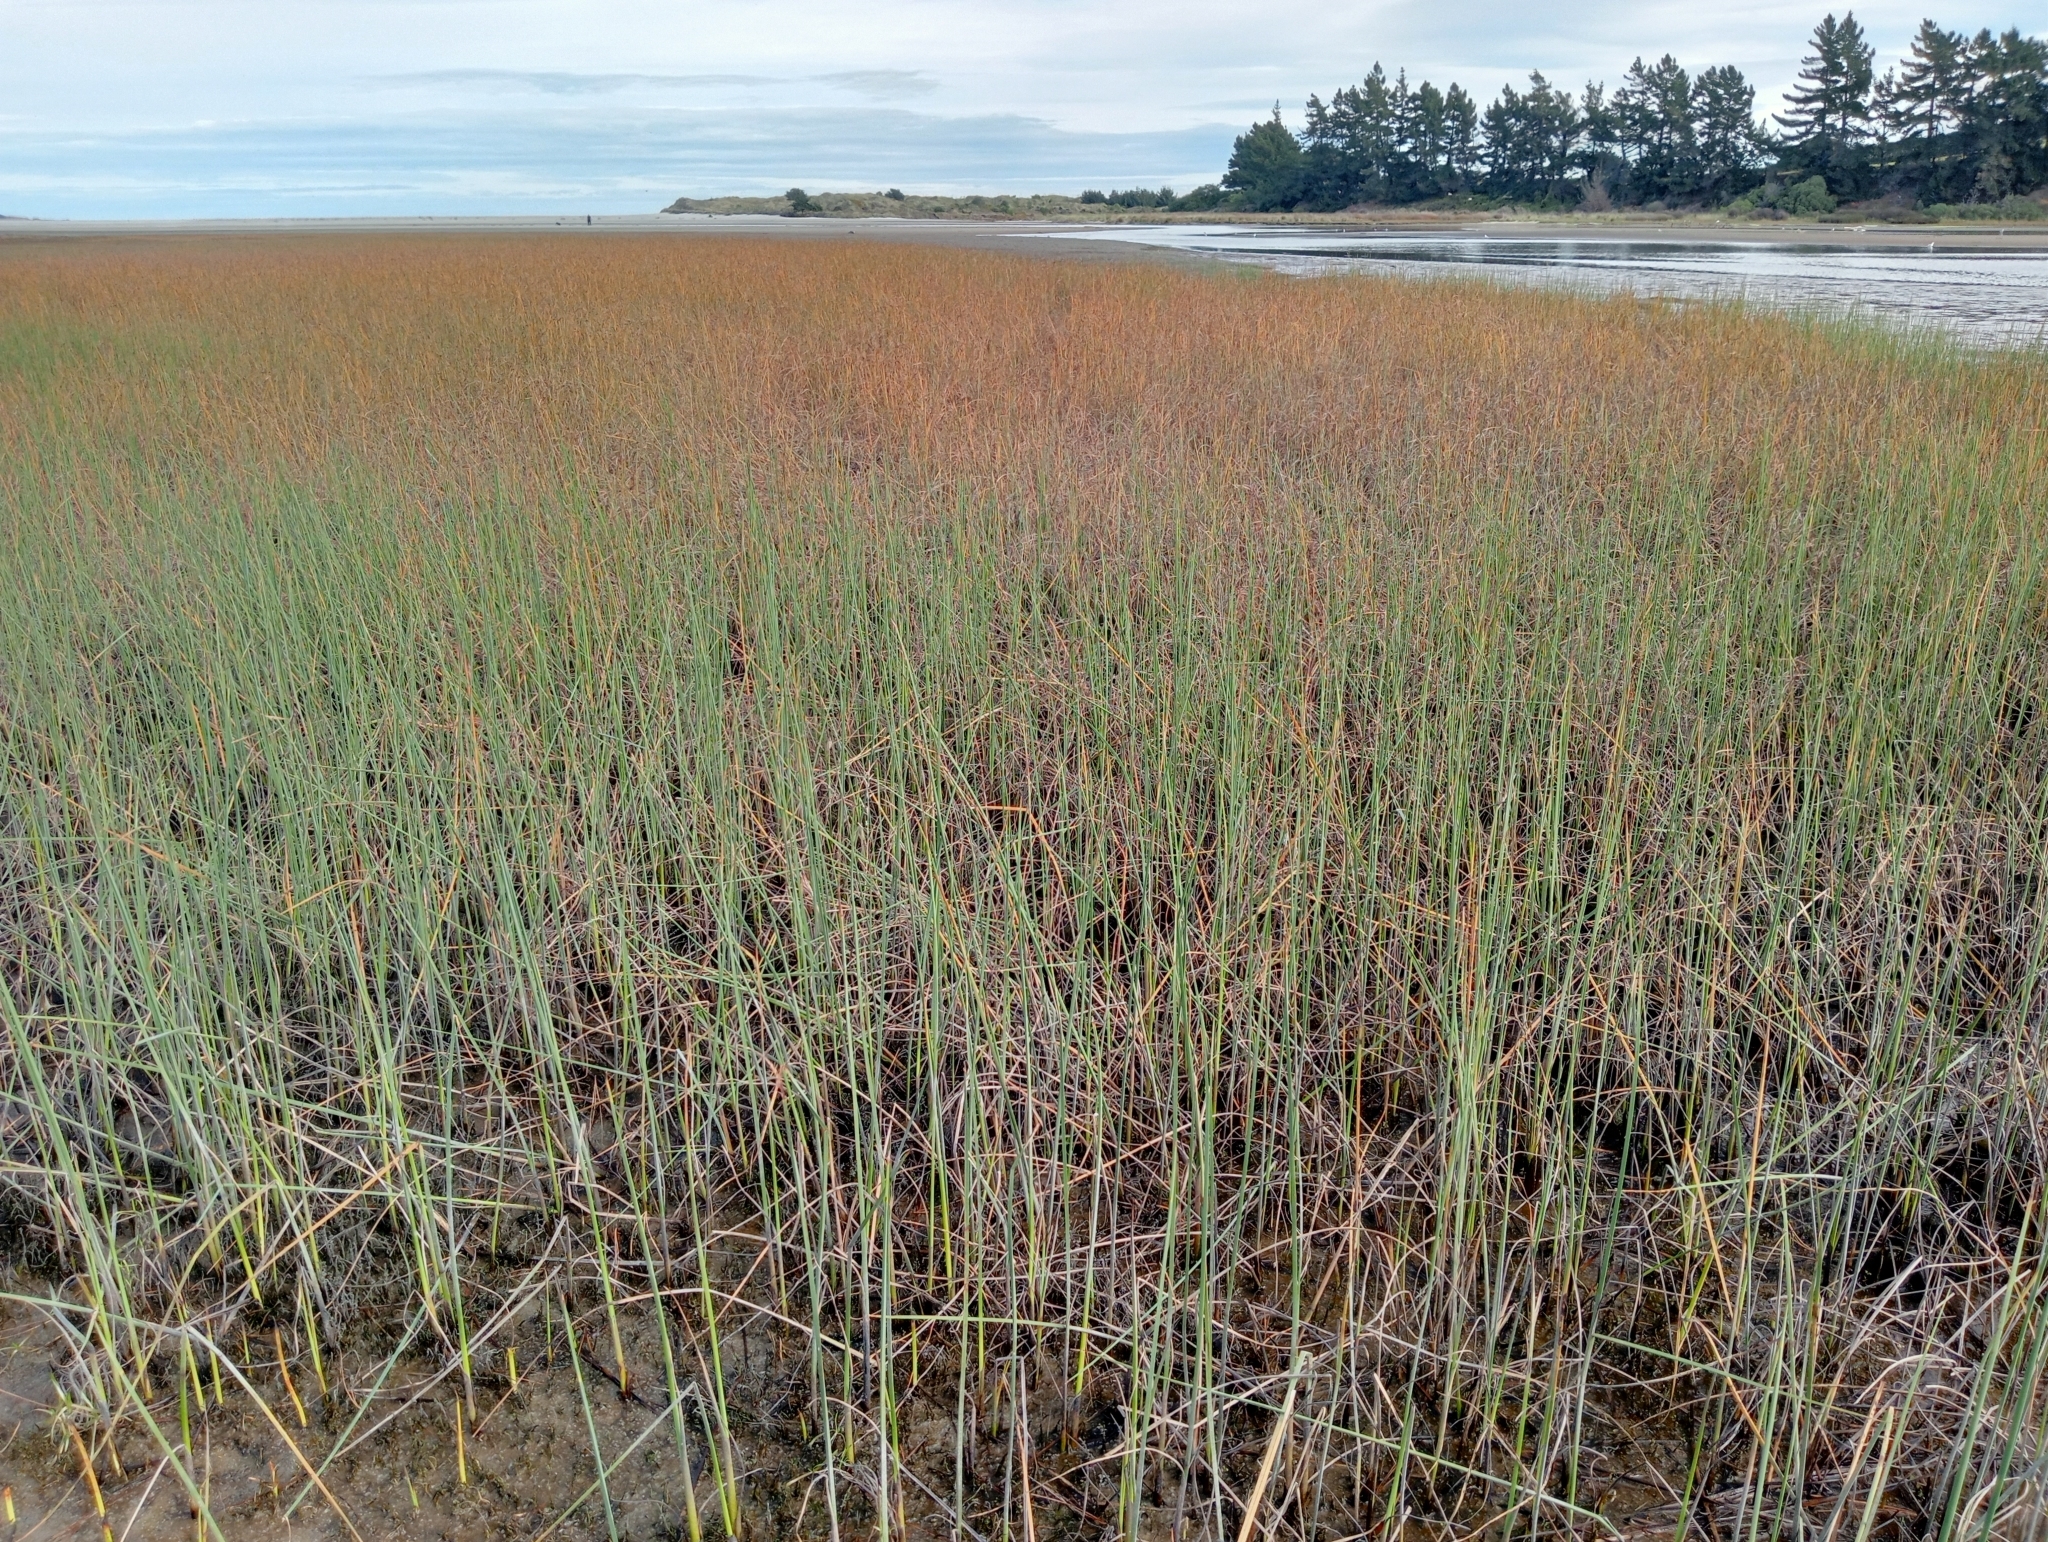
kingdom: Plantae
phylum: Tracheophyta
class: Liliopsida
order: Poales
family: Cyperaceae
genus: Schoenoplectus
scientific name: Schoenoplectus pungens
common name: Sharp club-rush
